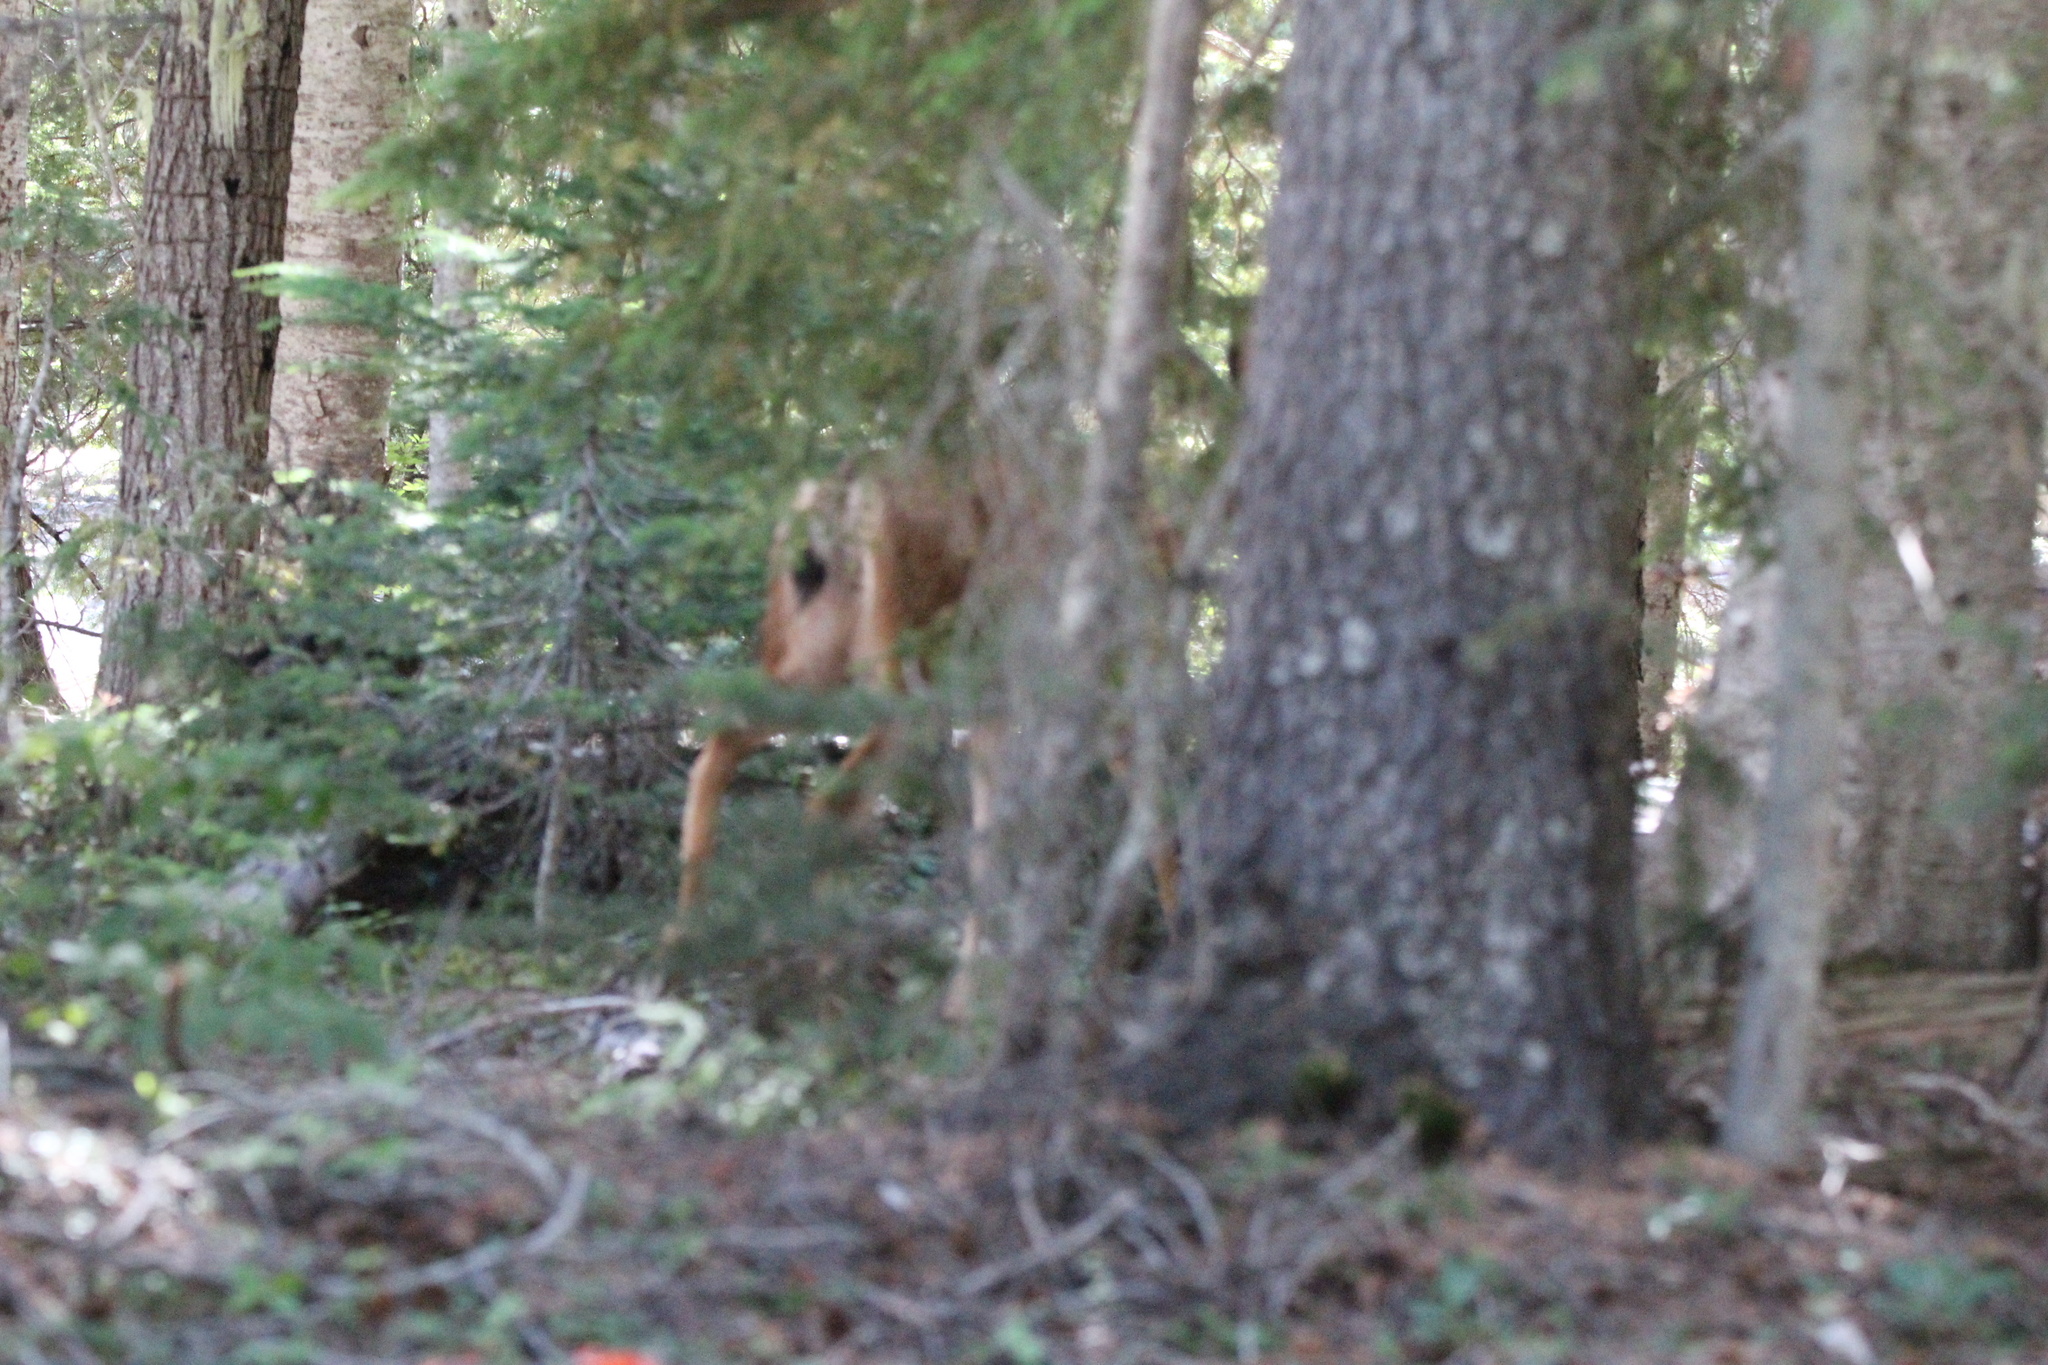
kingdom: Animalia
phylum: Chordata
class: Mammalia
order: Artiodactyla
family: Cervidae
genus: Odocoileus
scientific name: Odocoileus hemionus
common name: Mule deer
